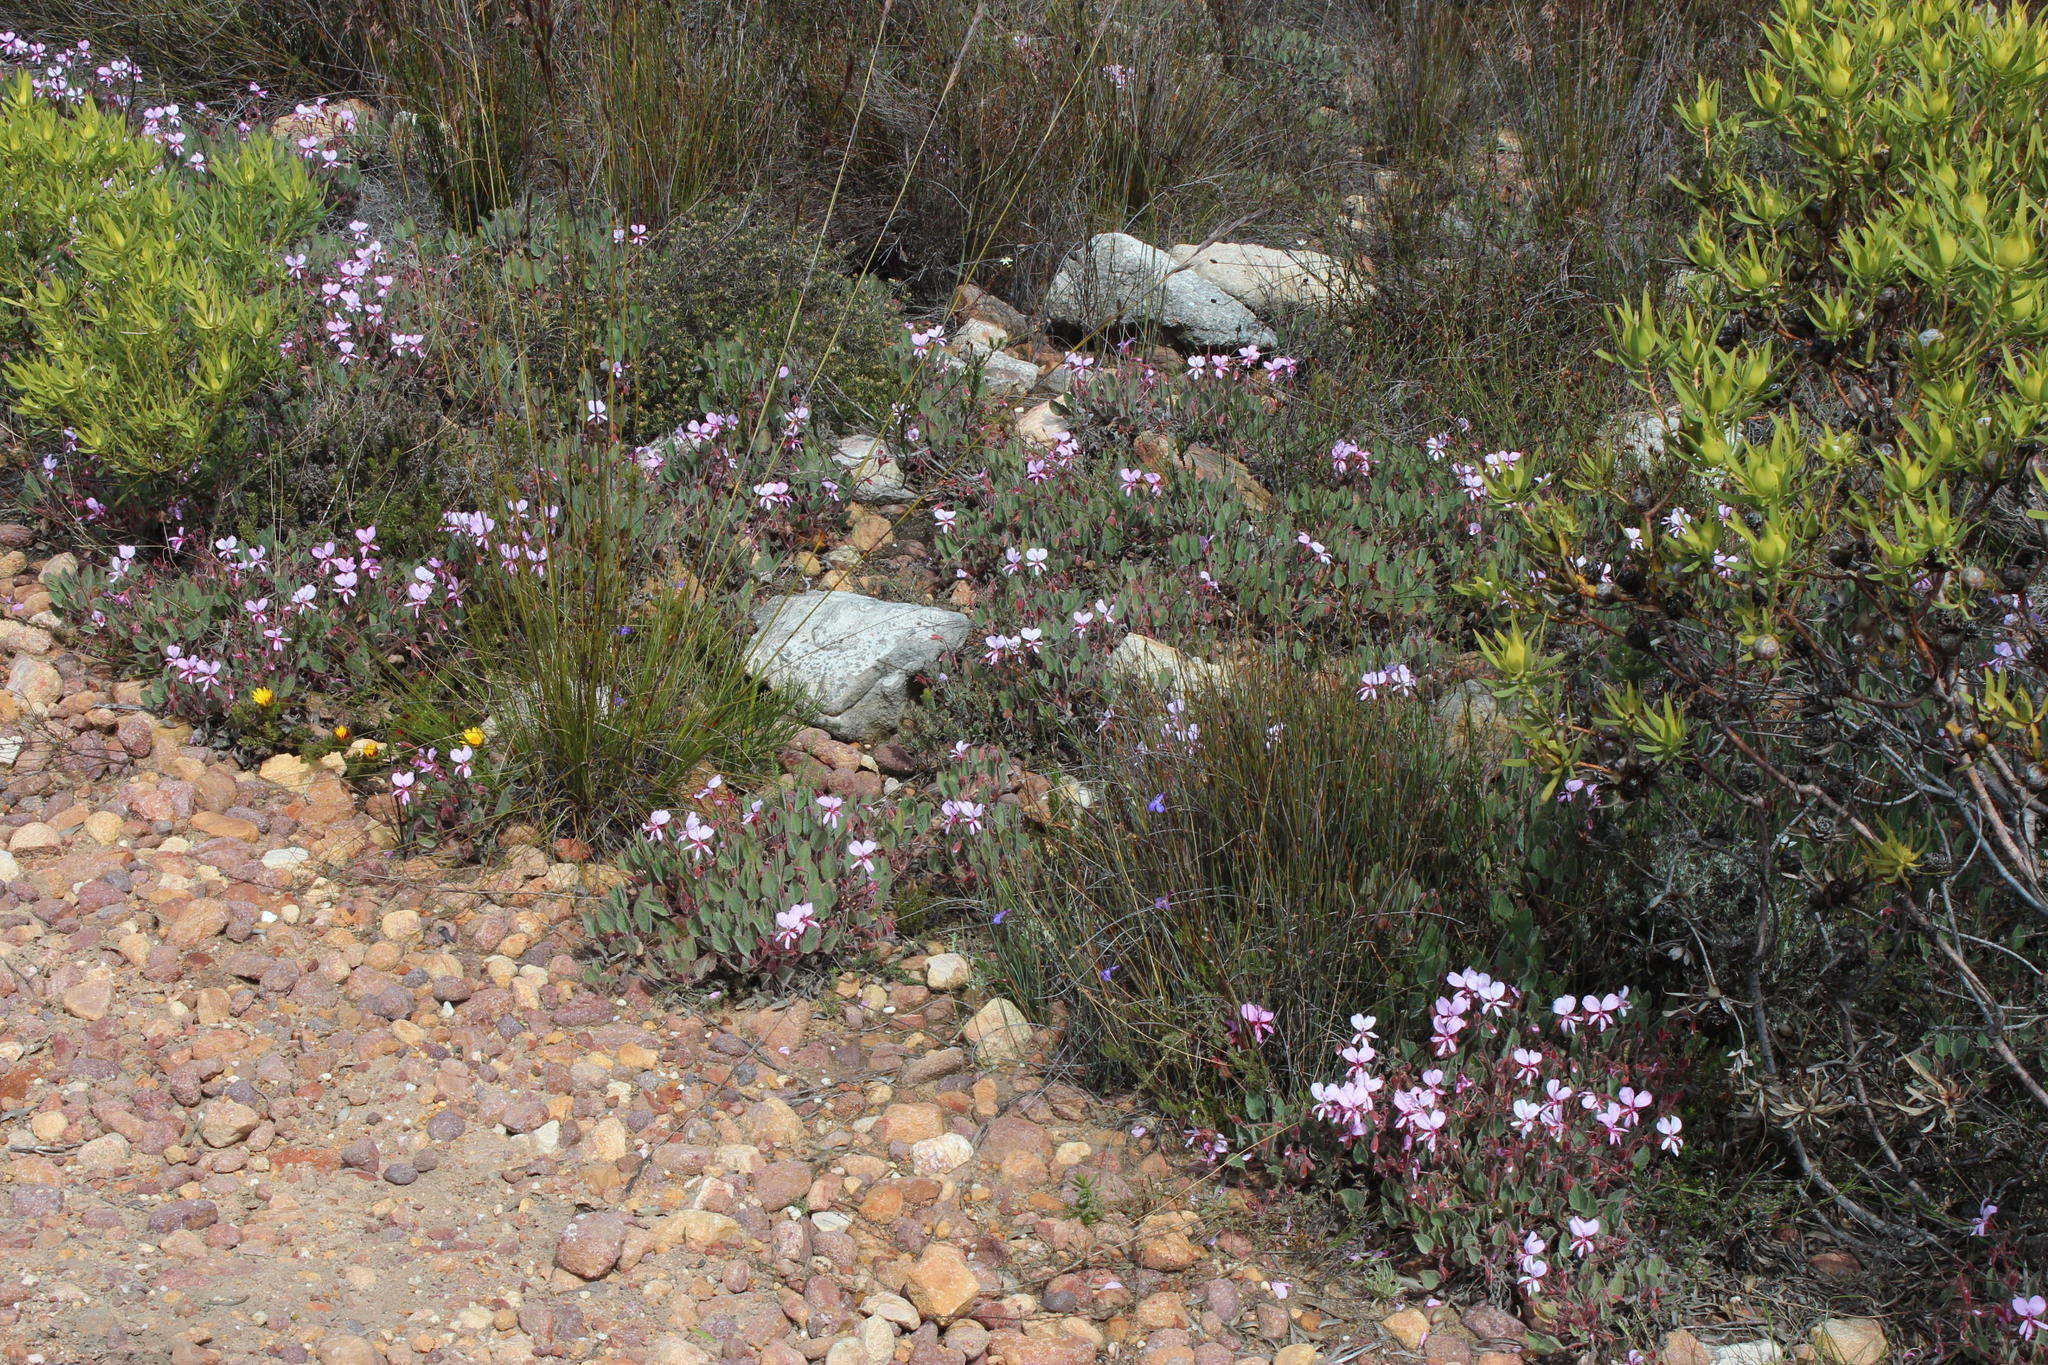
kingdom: Plantae
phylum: Tracheophyta
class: Magnoliopsida
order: Geraniales
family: Geraniaceae
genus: Pelargonium
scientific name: Pelargonium ovale
